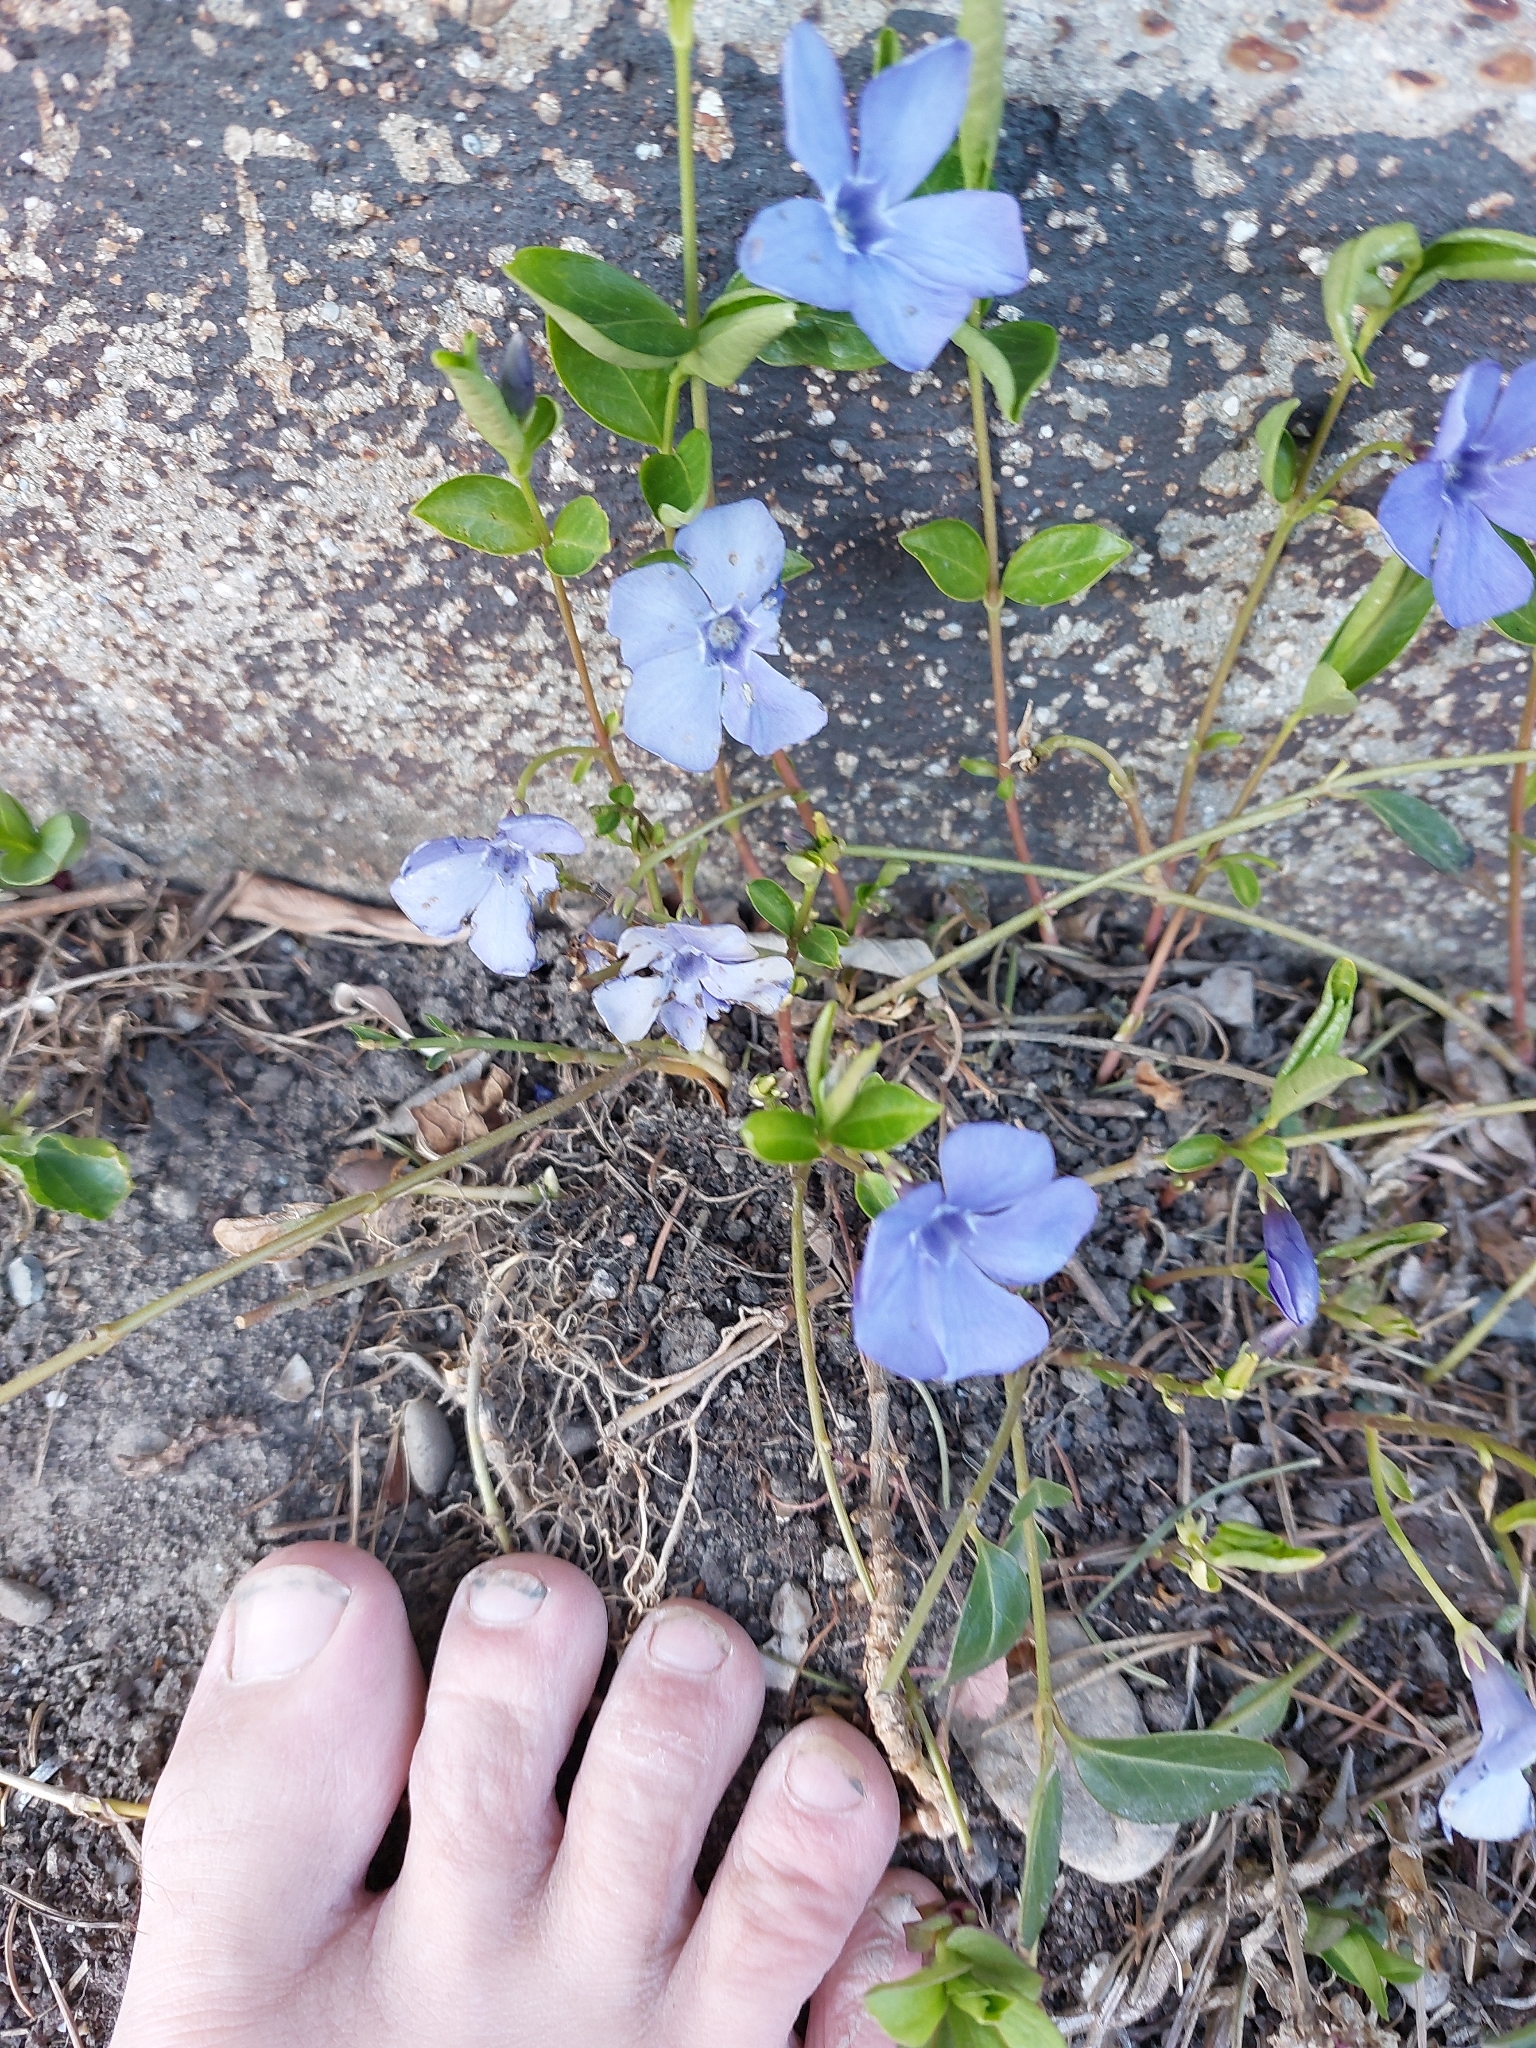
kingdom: Plantae
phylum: Tracheophyta
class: Magnoliopsida
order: Gentianales
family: Apocynaceae
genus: Vinca
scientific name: Vinca minor
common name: Lesser periwinkle
